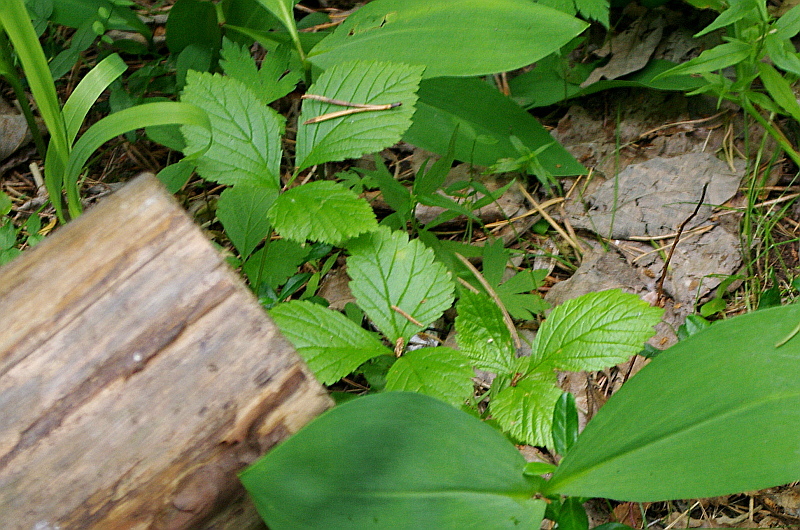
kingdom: Plantae
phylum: Tracheophyta
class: Magnoliopsida
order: Rosales
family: Rosaceae
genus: Rubus
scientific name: Rubus saxatilis
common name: Stone bramble
